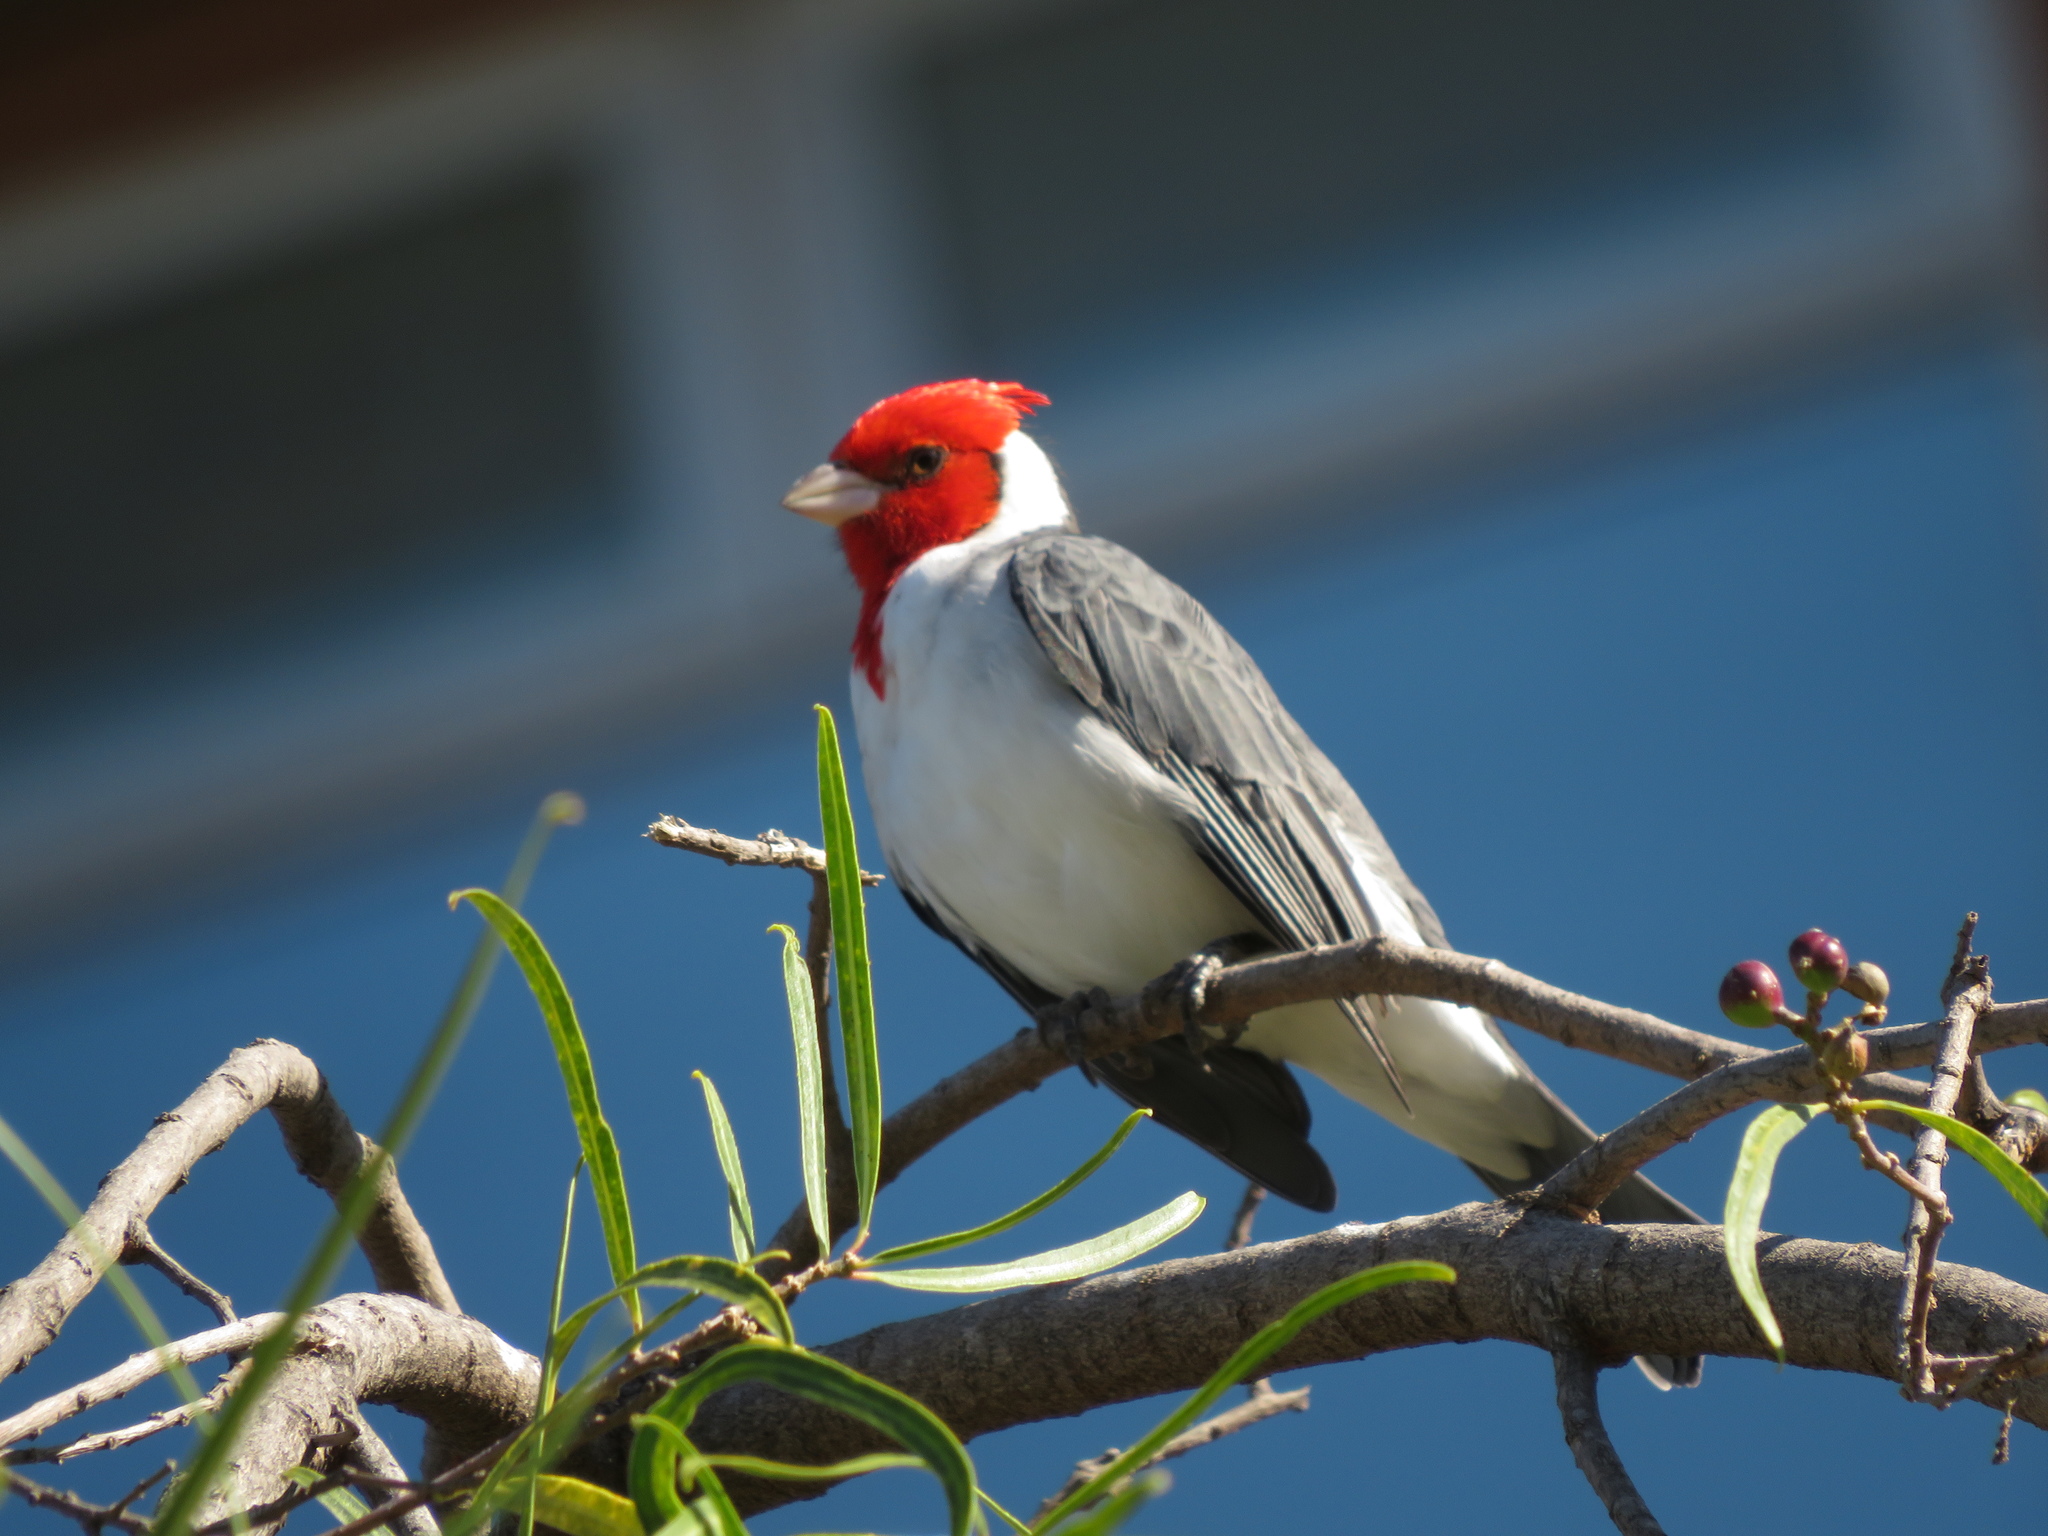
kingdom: Animalia
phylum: Chordata
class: Aves
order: Passeriformes
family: Thraupidae
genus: Paroaria
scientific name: Paroaria coronata
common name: Red-crested cardinal
